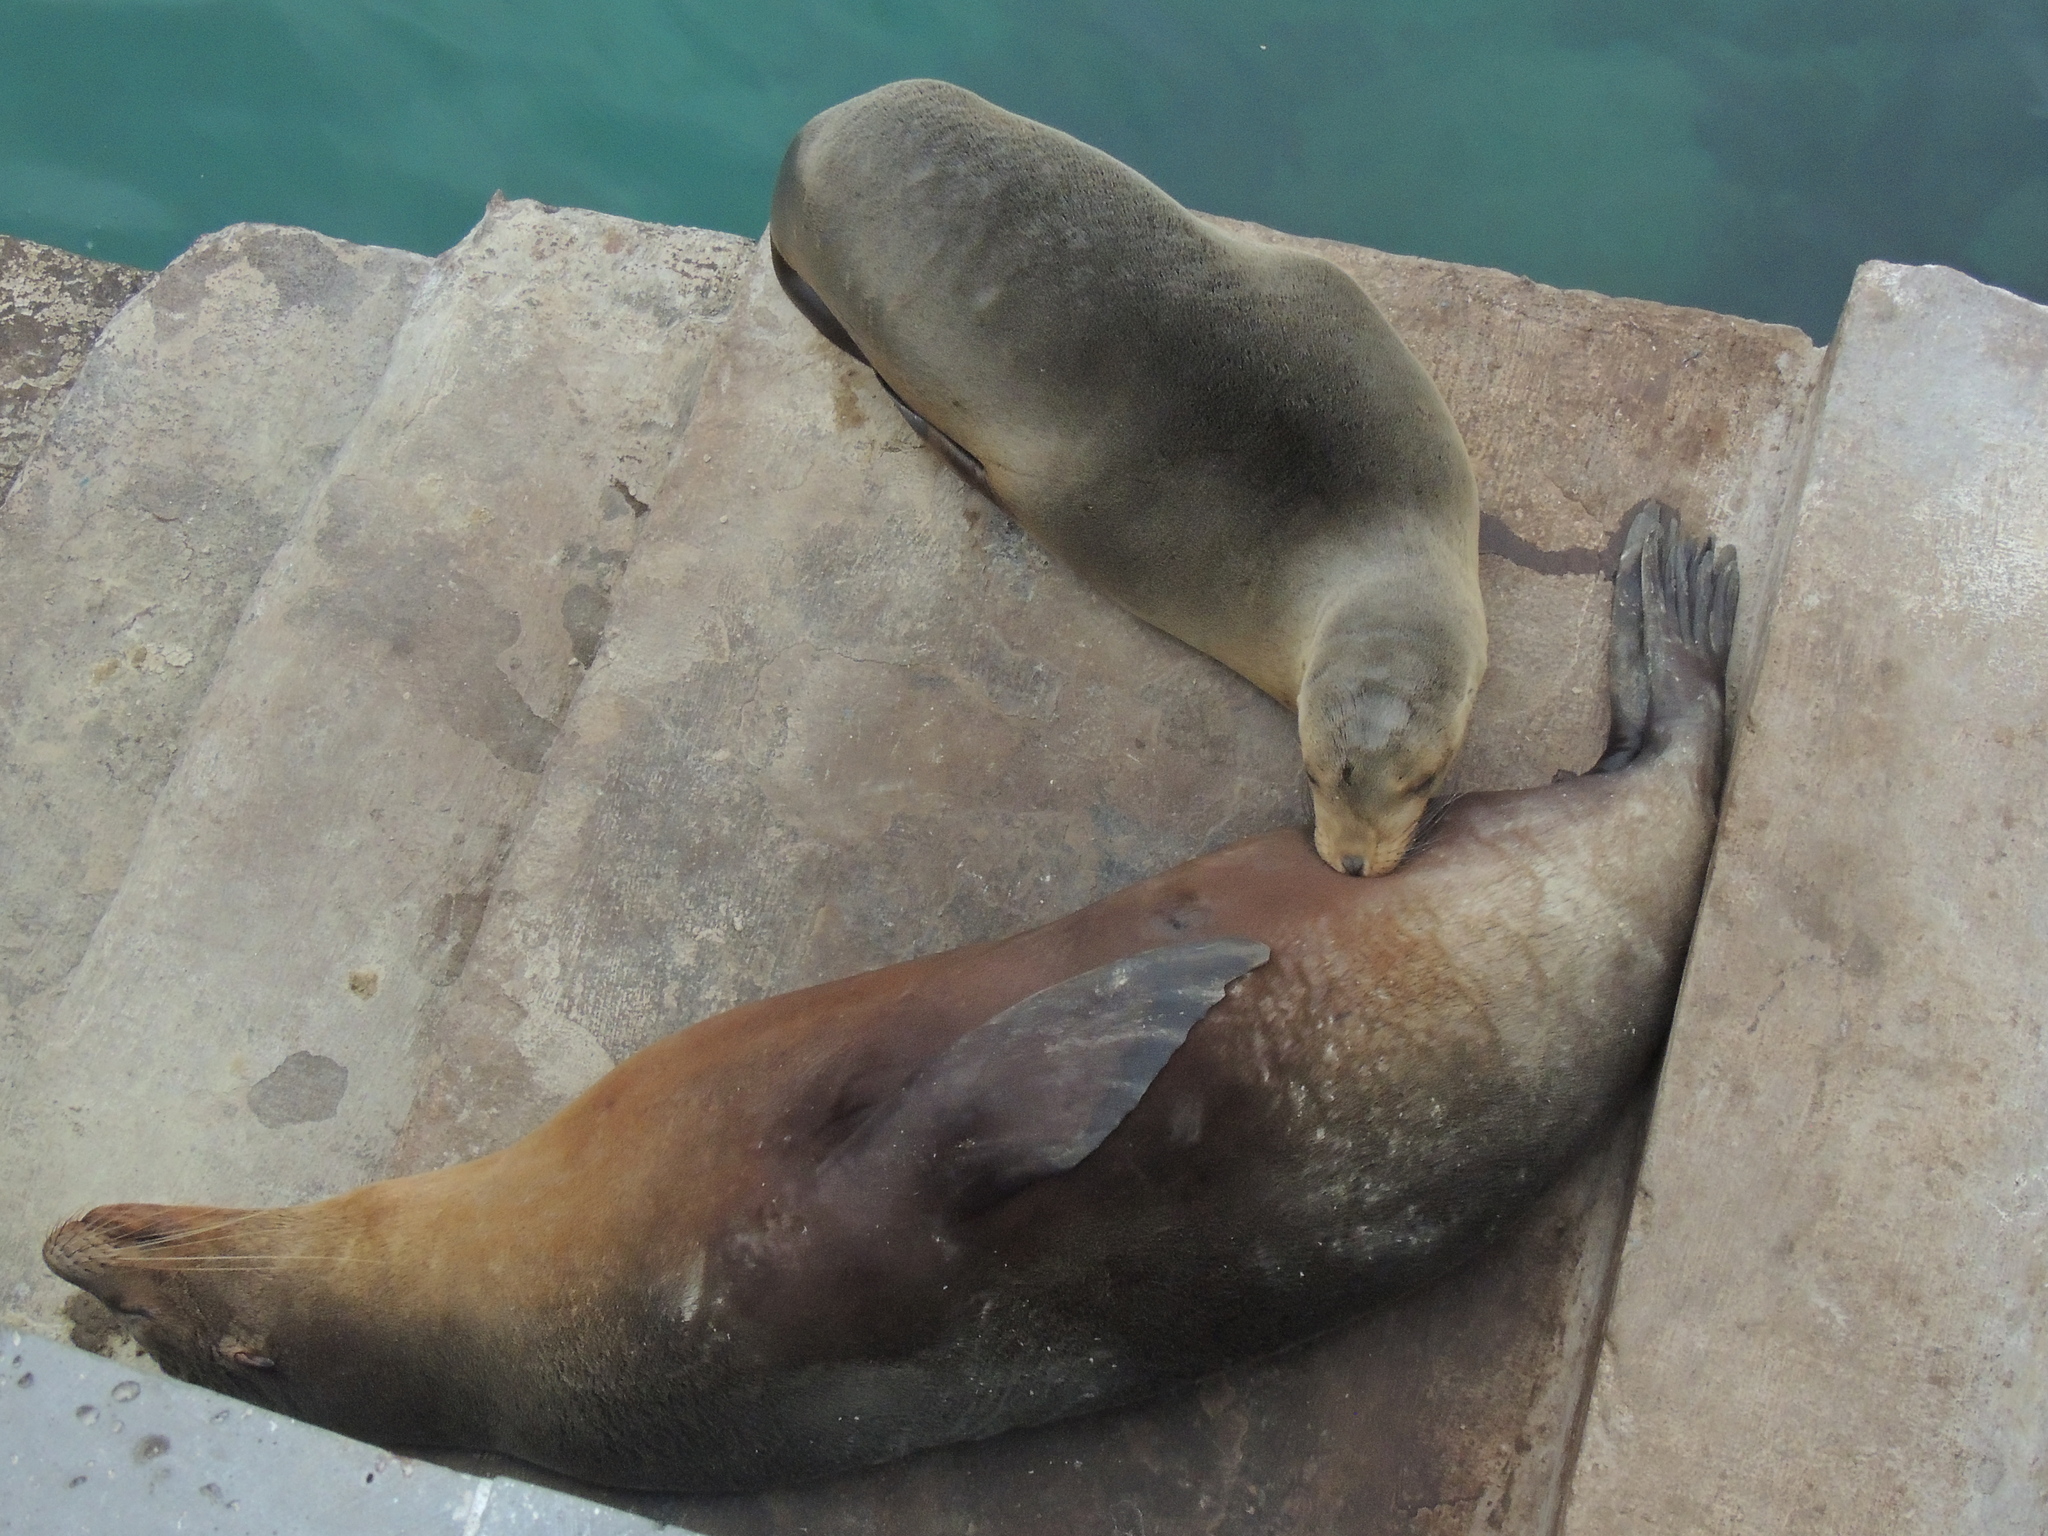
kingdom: Animalia
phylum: Chordata
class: Mammalia
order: Carnivora
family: Otariidae
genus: Zalophus
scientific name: Zalophus wollebaeki
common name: Galapagos sea lion
